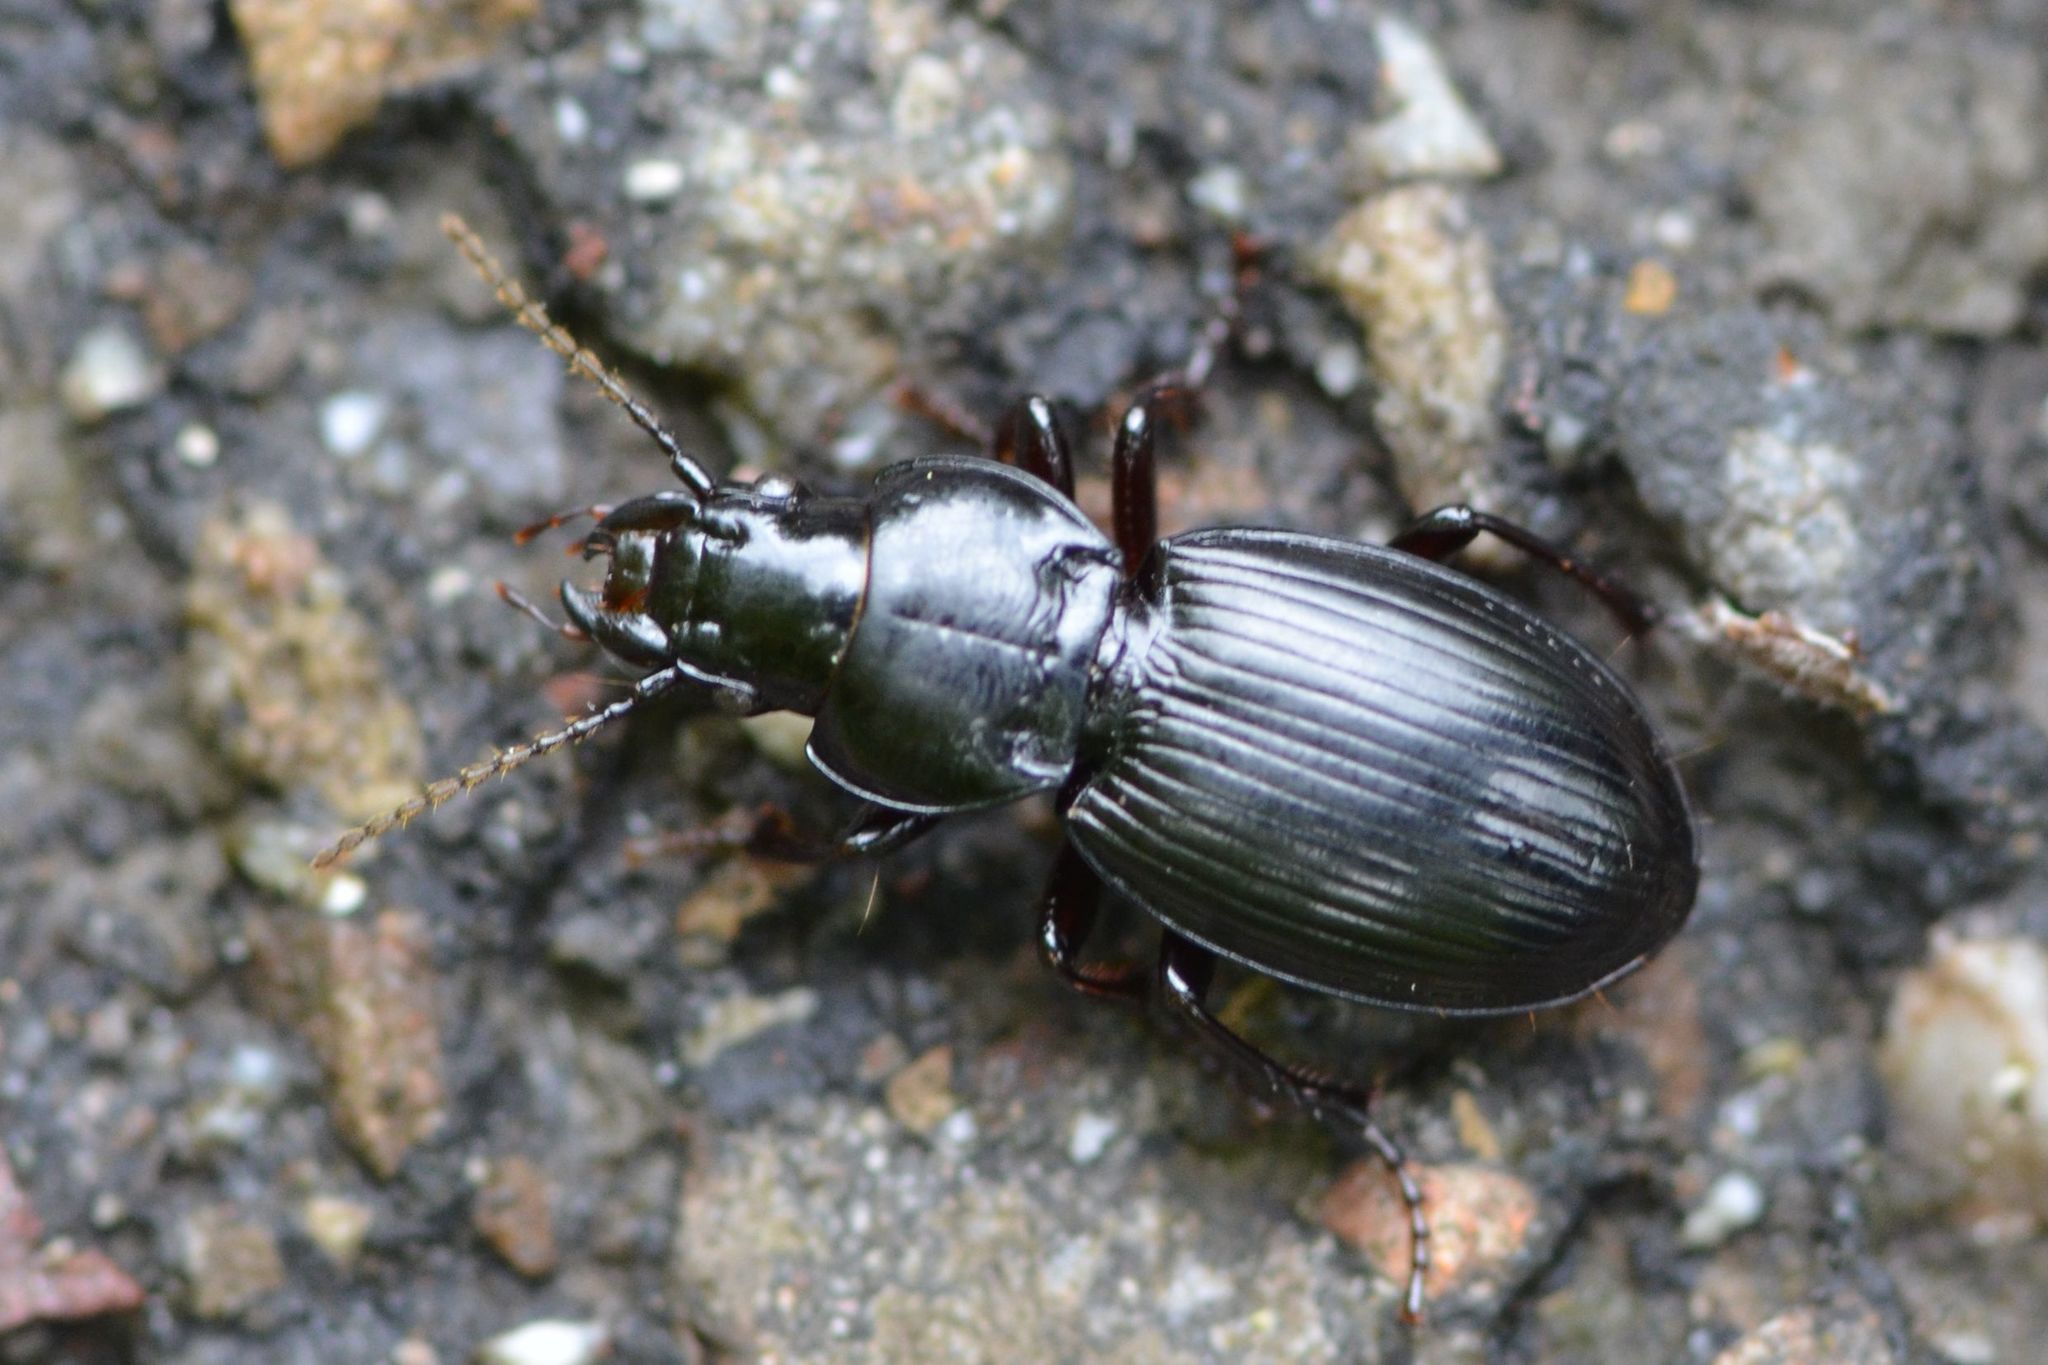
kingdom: Animalia
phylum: Arthropoda
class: Insecta
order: Coleoptera
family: Carabidae
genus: Molops
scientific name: Molops elatus
